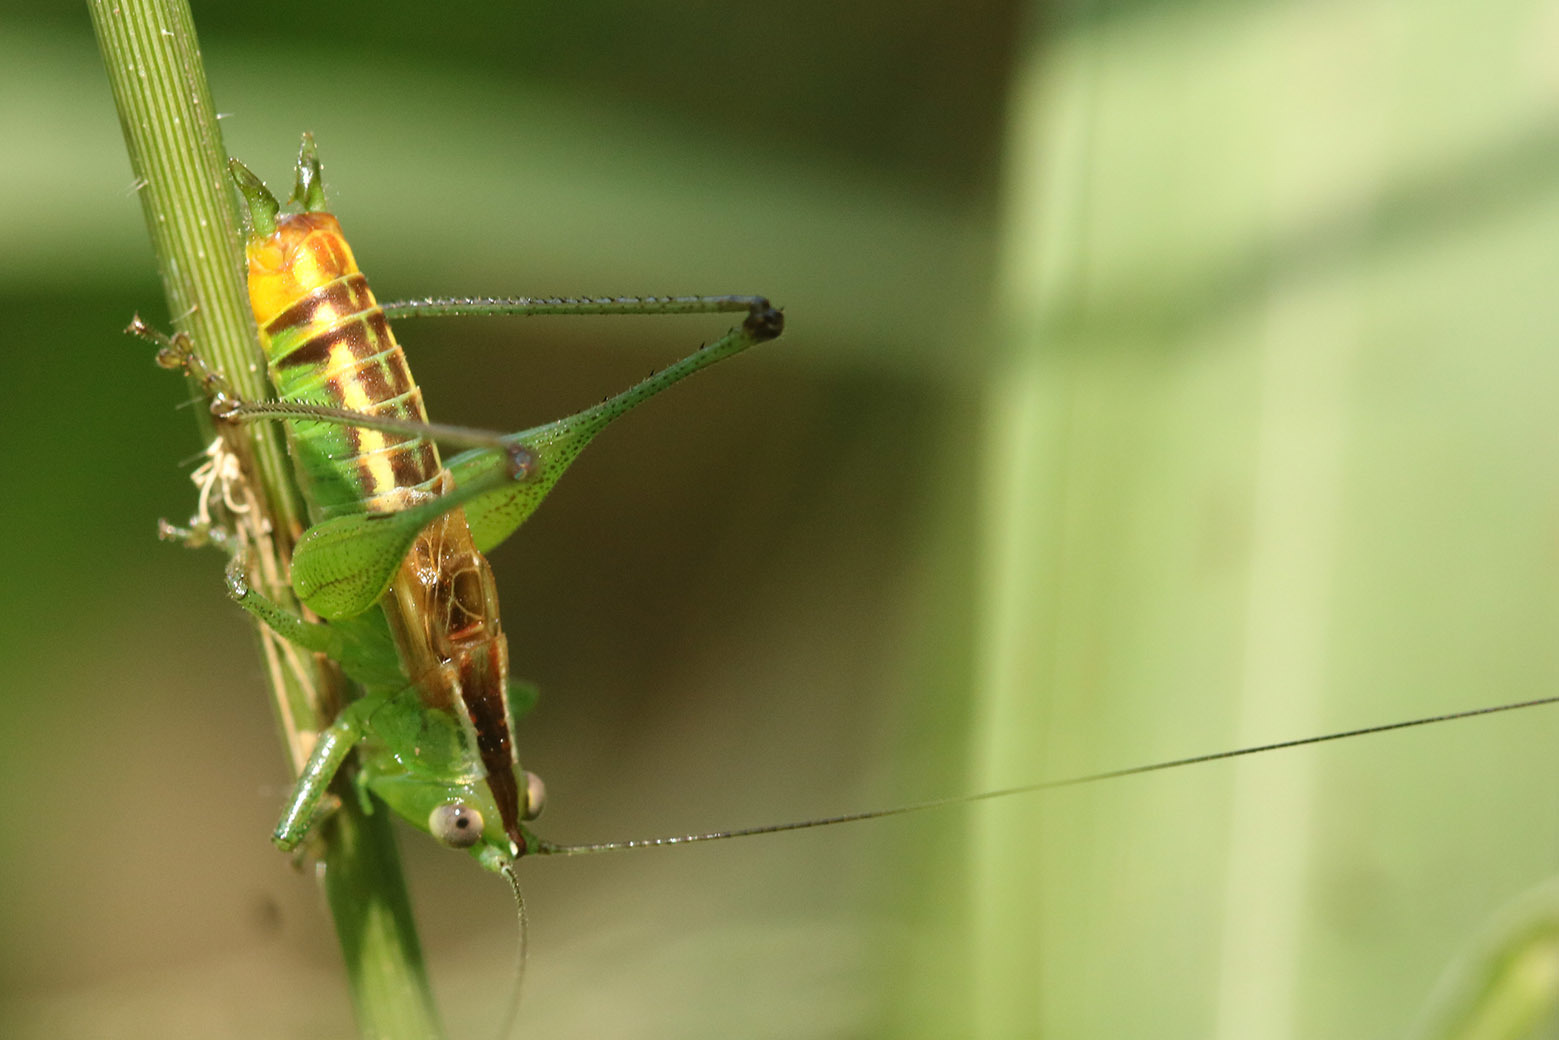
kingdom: Animalia
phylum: Arthropoda
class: Insecta
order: Orthoptera
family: Tettigoniidae
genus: Conocephalus
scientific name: Conocephalus ochrotelus
